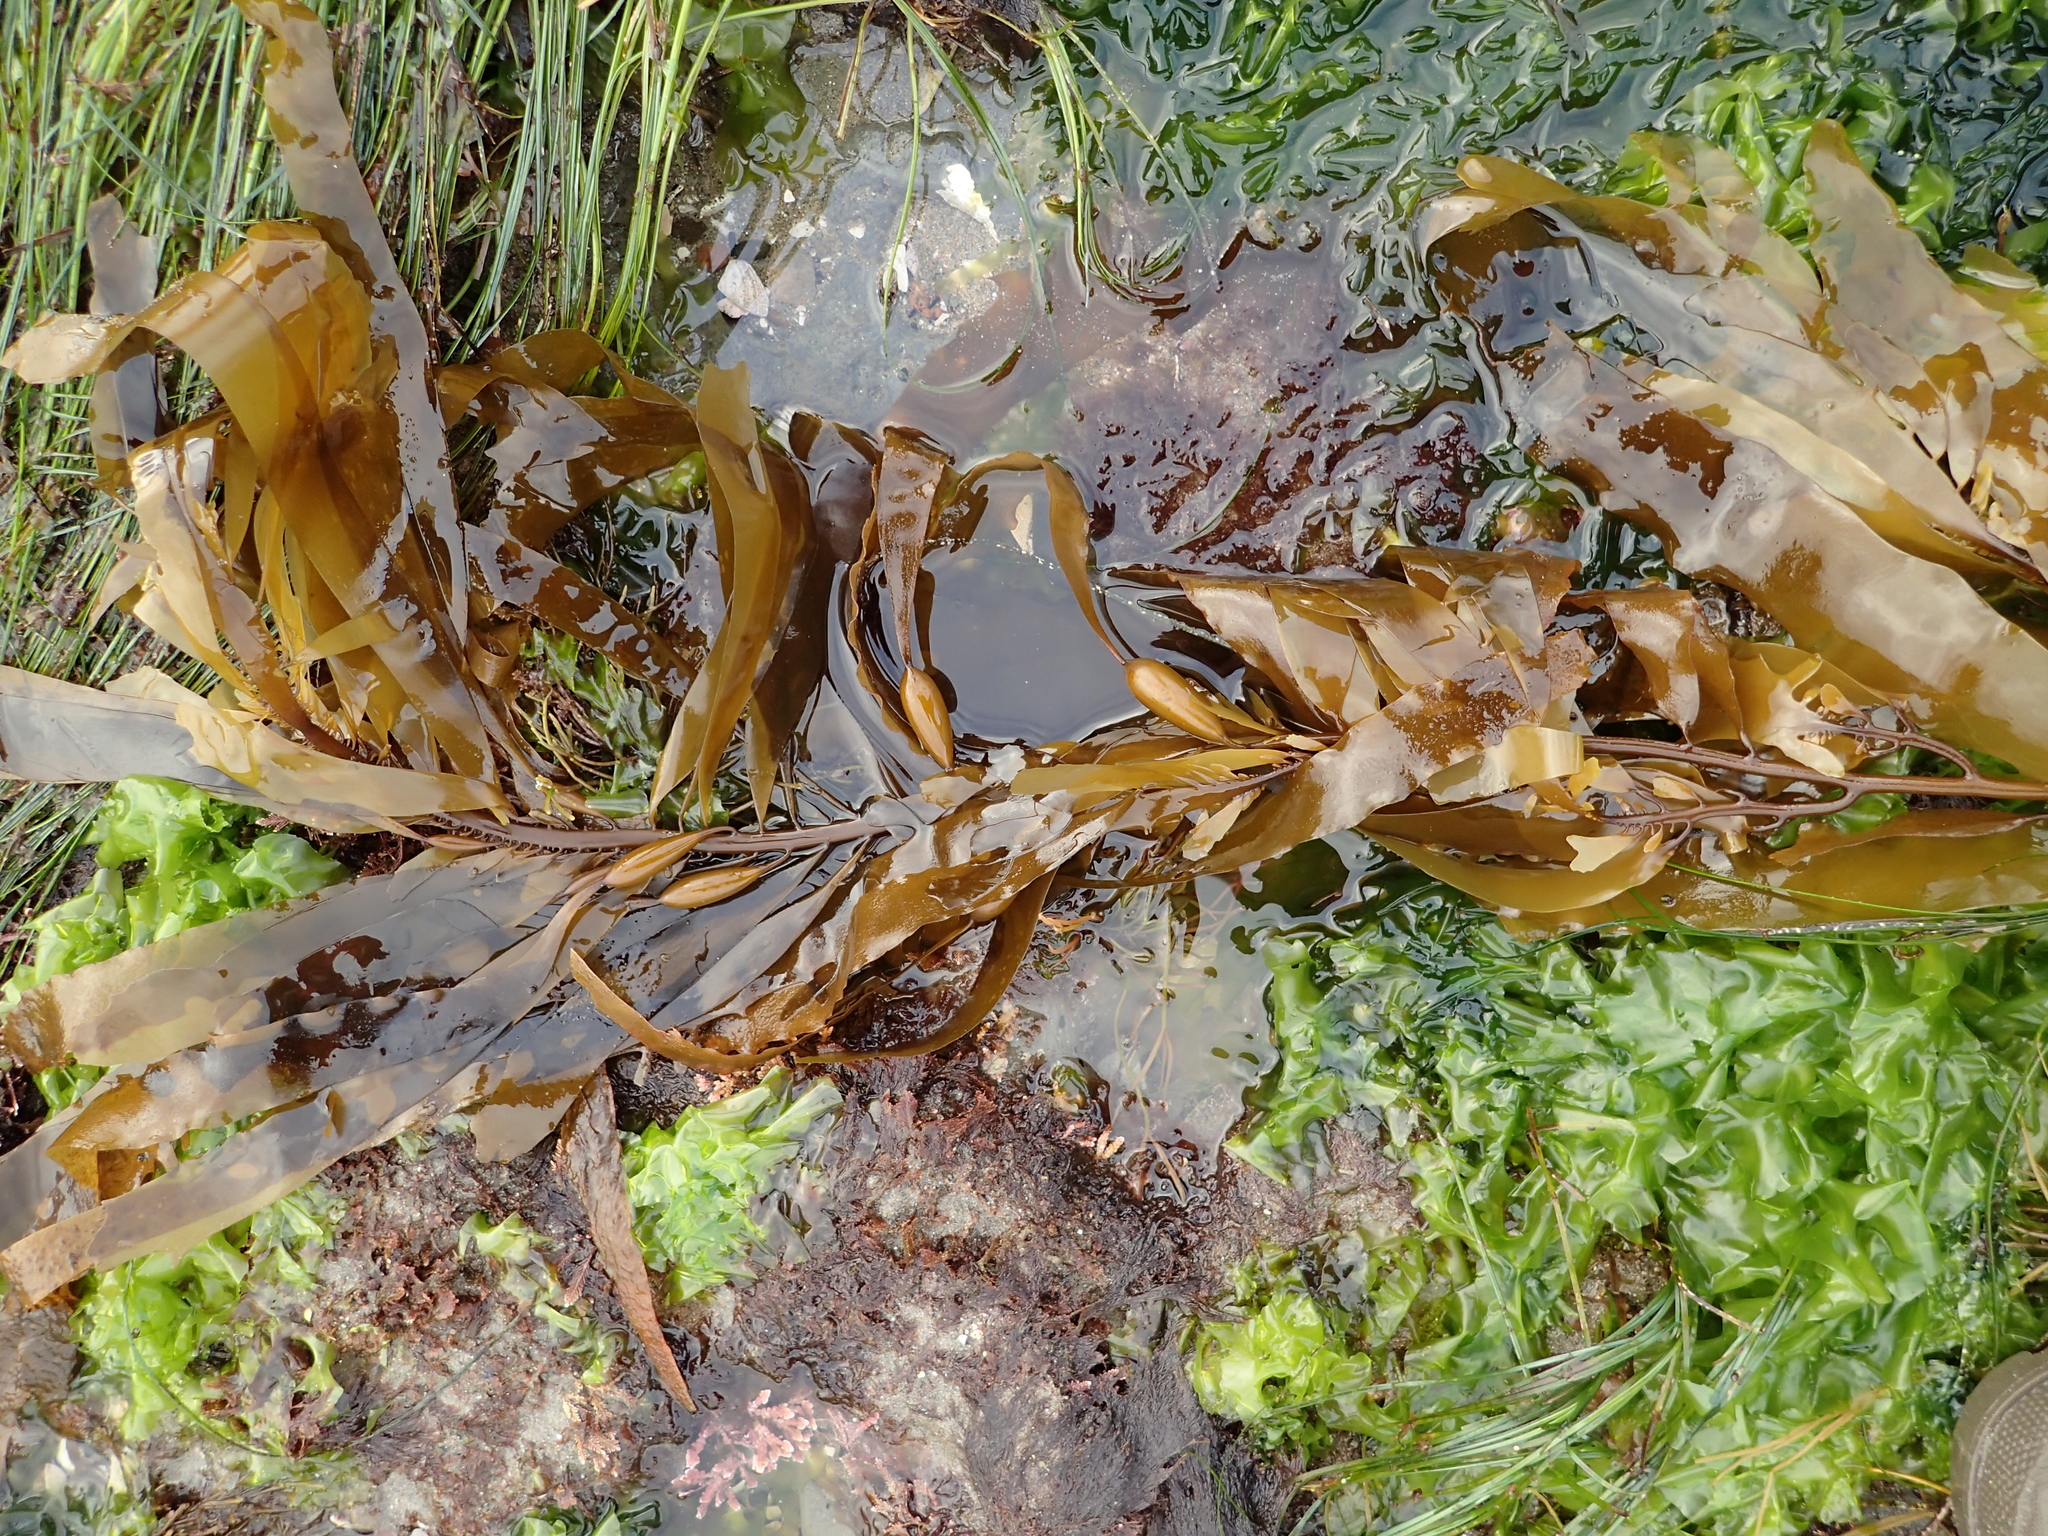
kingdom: Chromista
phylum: Ochrophyta
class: Phaeophyceae
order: Laminariales
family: Lessoniaceae
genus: Egregia
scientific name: Egregia menziesii
